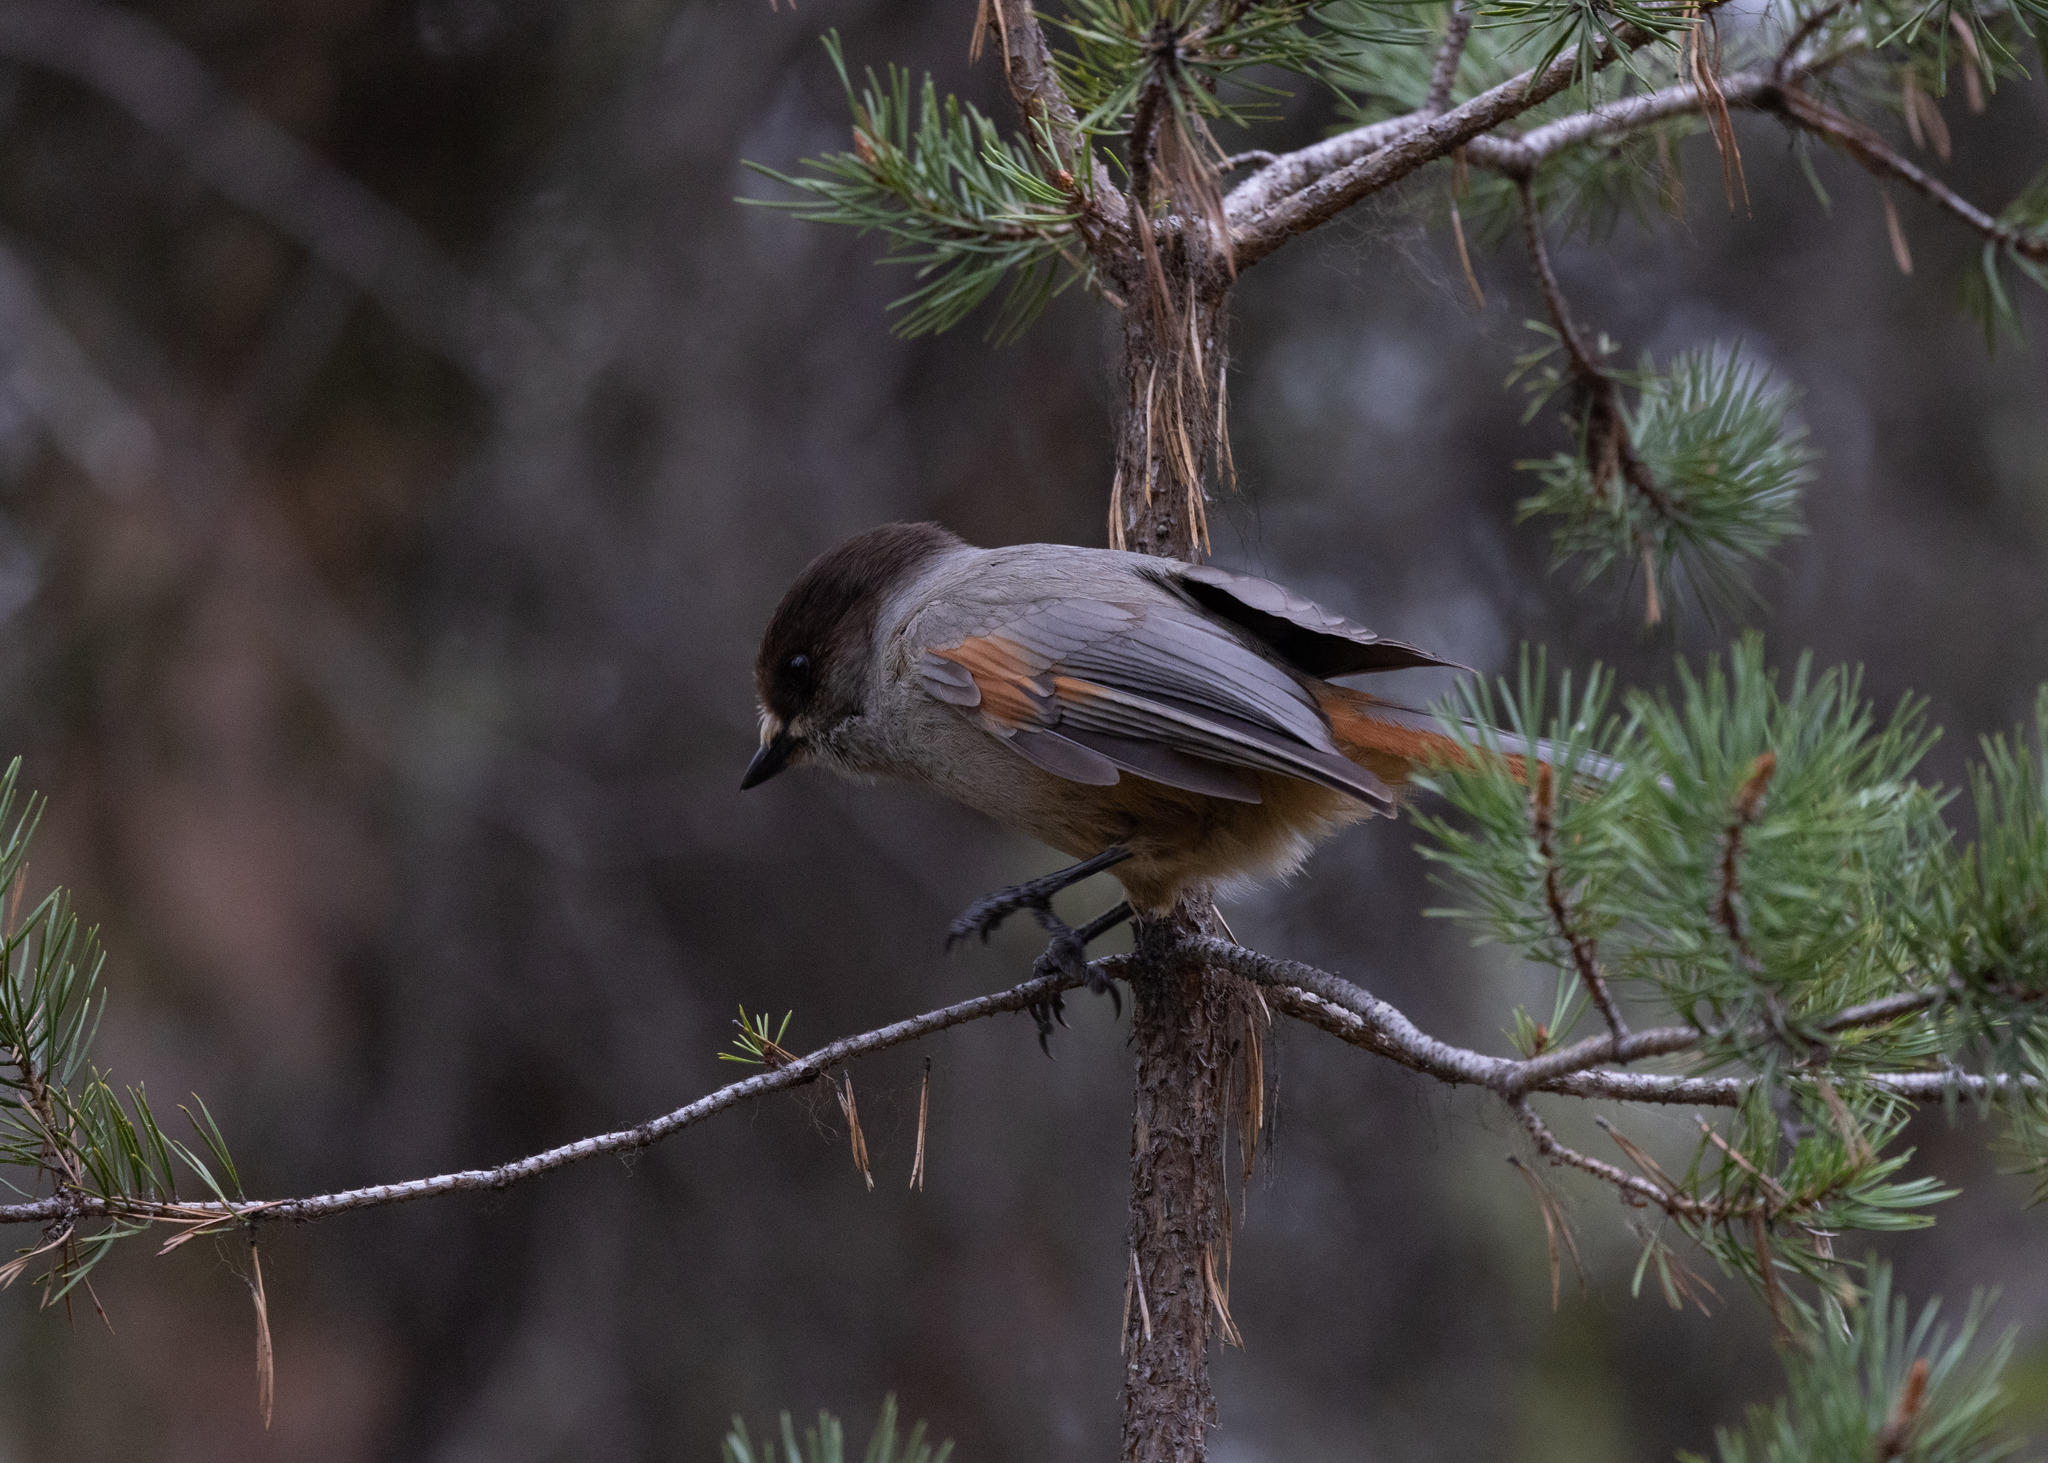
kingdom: Animalia
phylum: Chordata
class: Aves
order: Passeriformes
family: Corvidae
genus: Perisoreus
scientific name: Perisoreus infaustus
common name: Siberian jay
